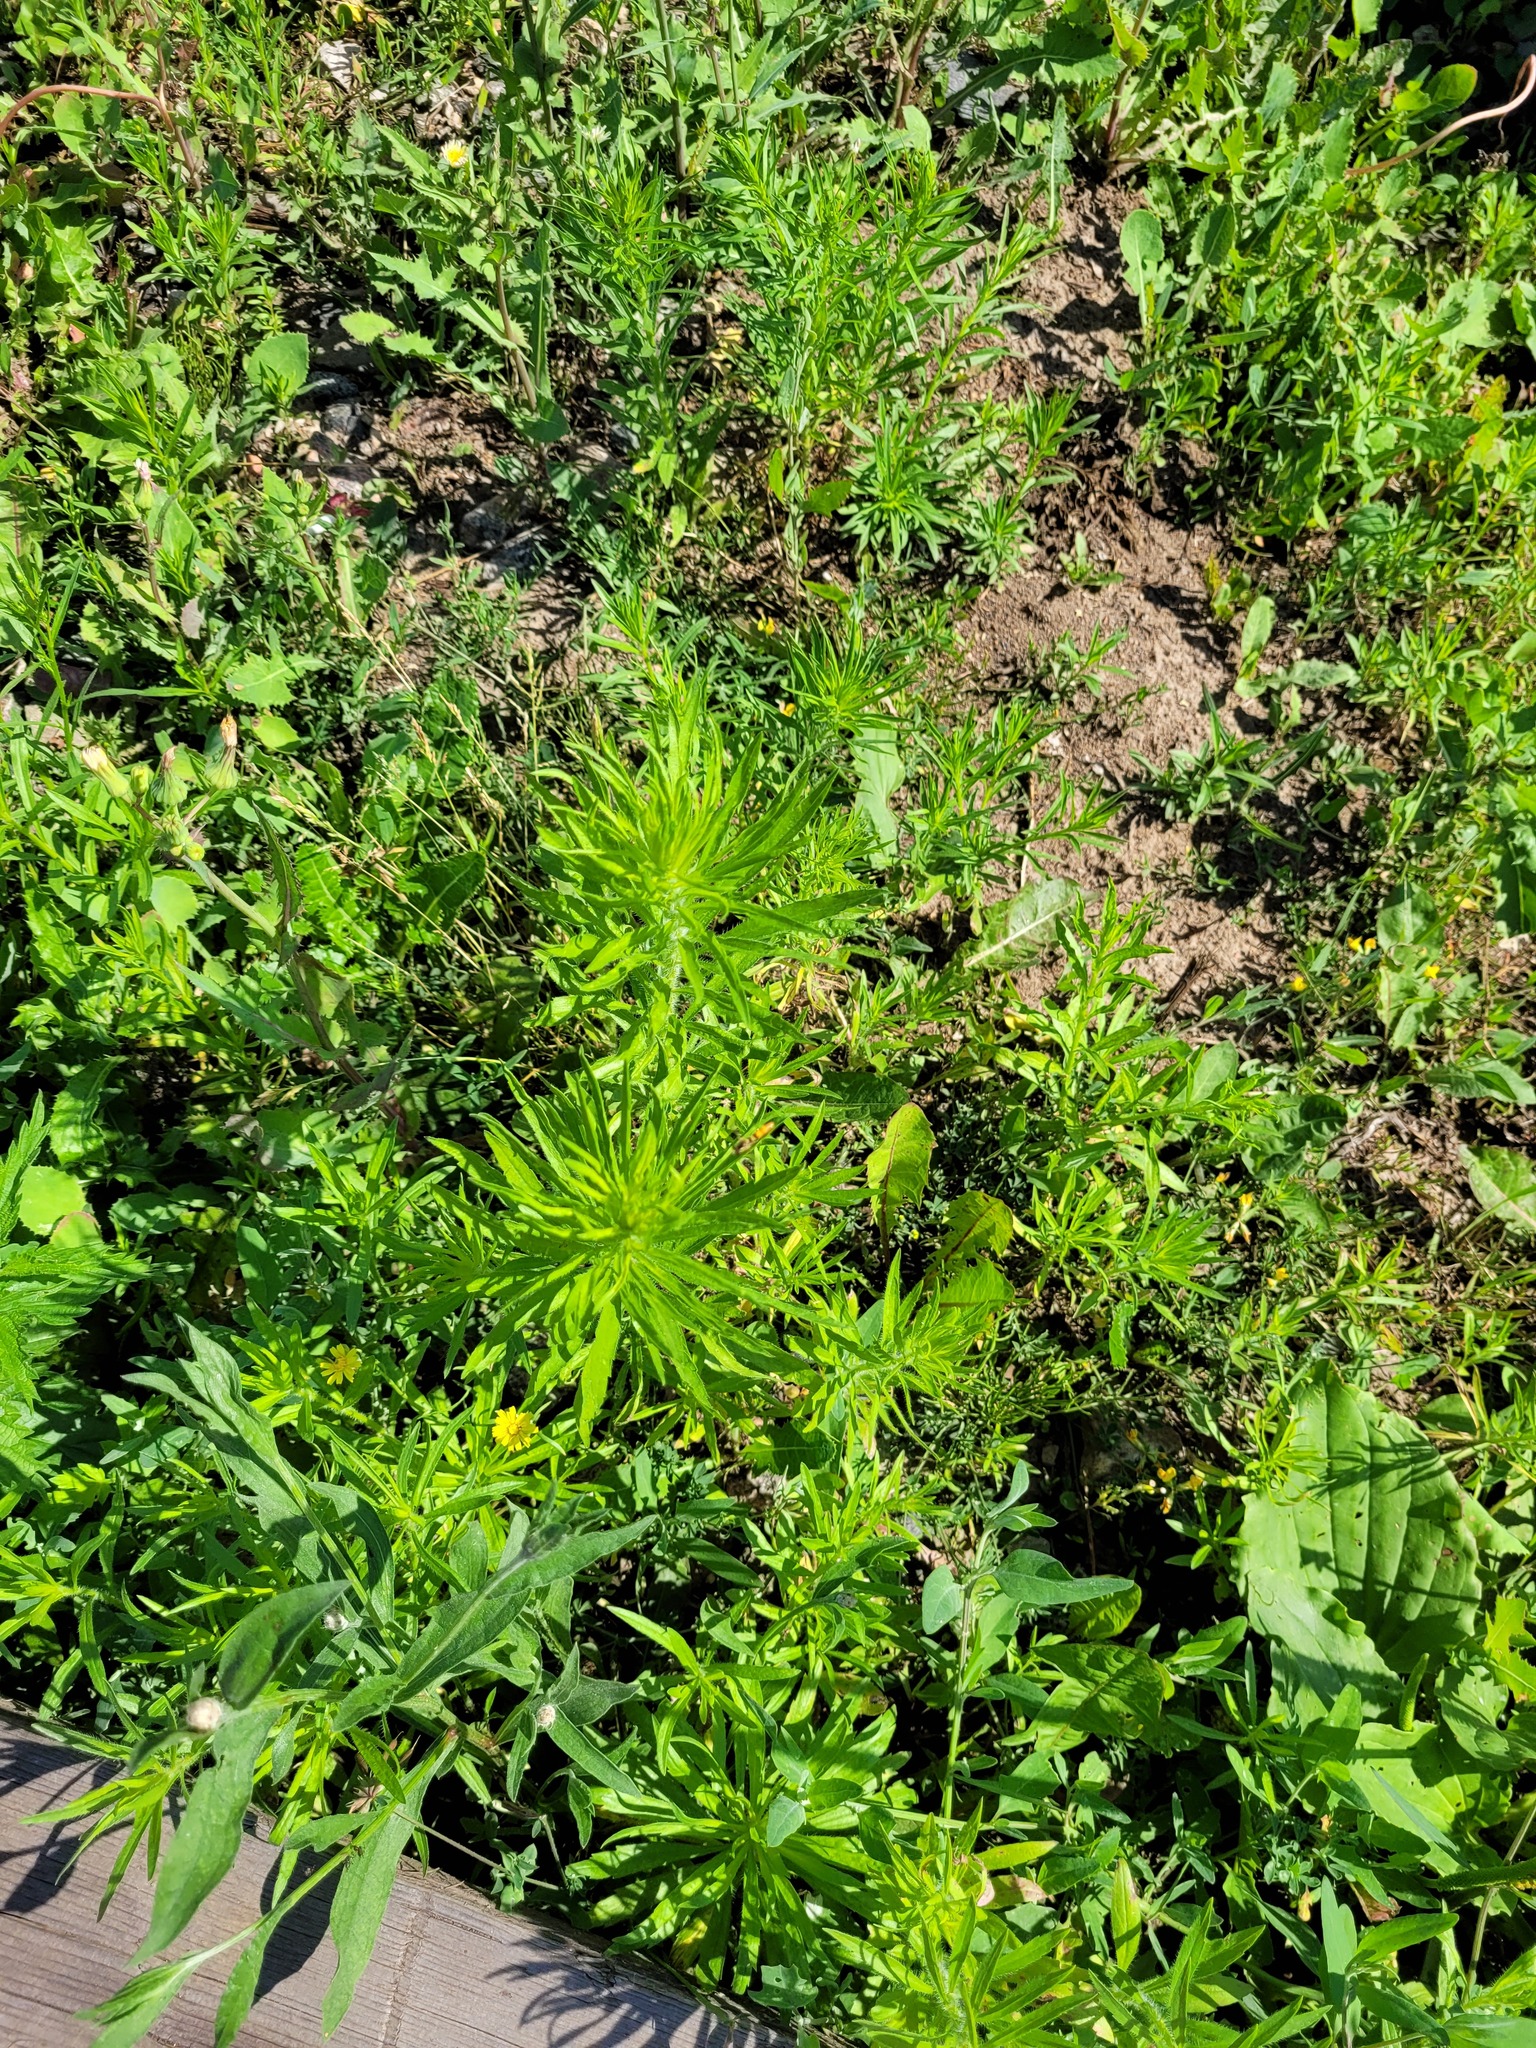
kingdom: Plantae
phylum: Tracheophyta
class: Magnoliopsida
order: Asterales
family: Asteraceae
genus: Erigeron
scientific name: Erigeron canadensis
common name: Canadian fleabane
